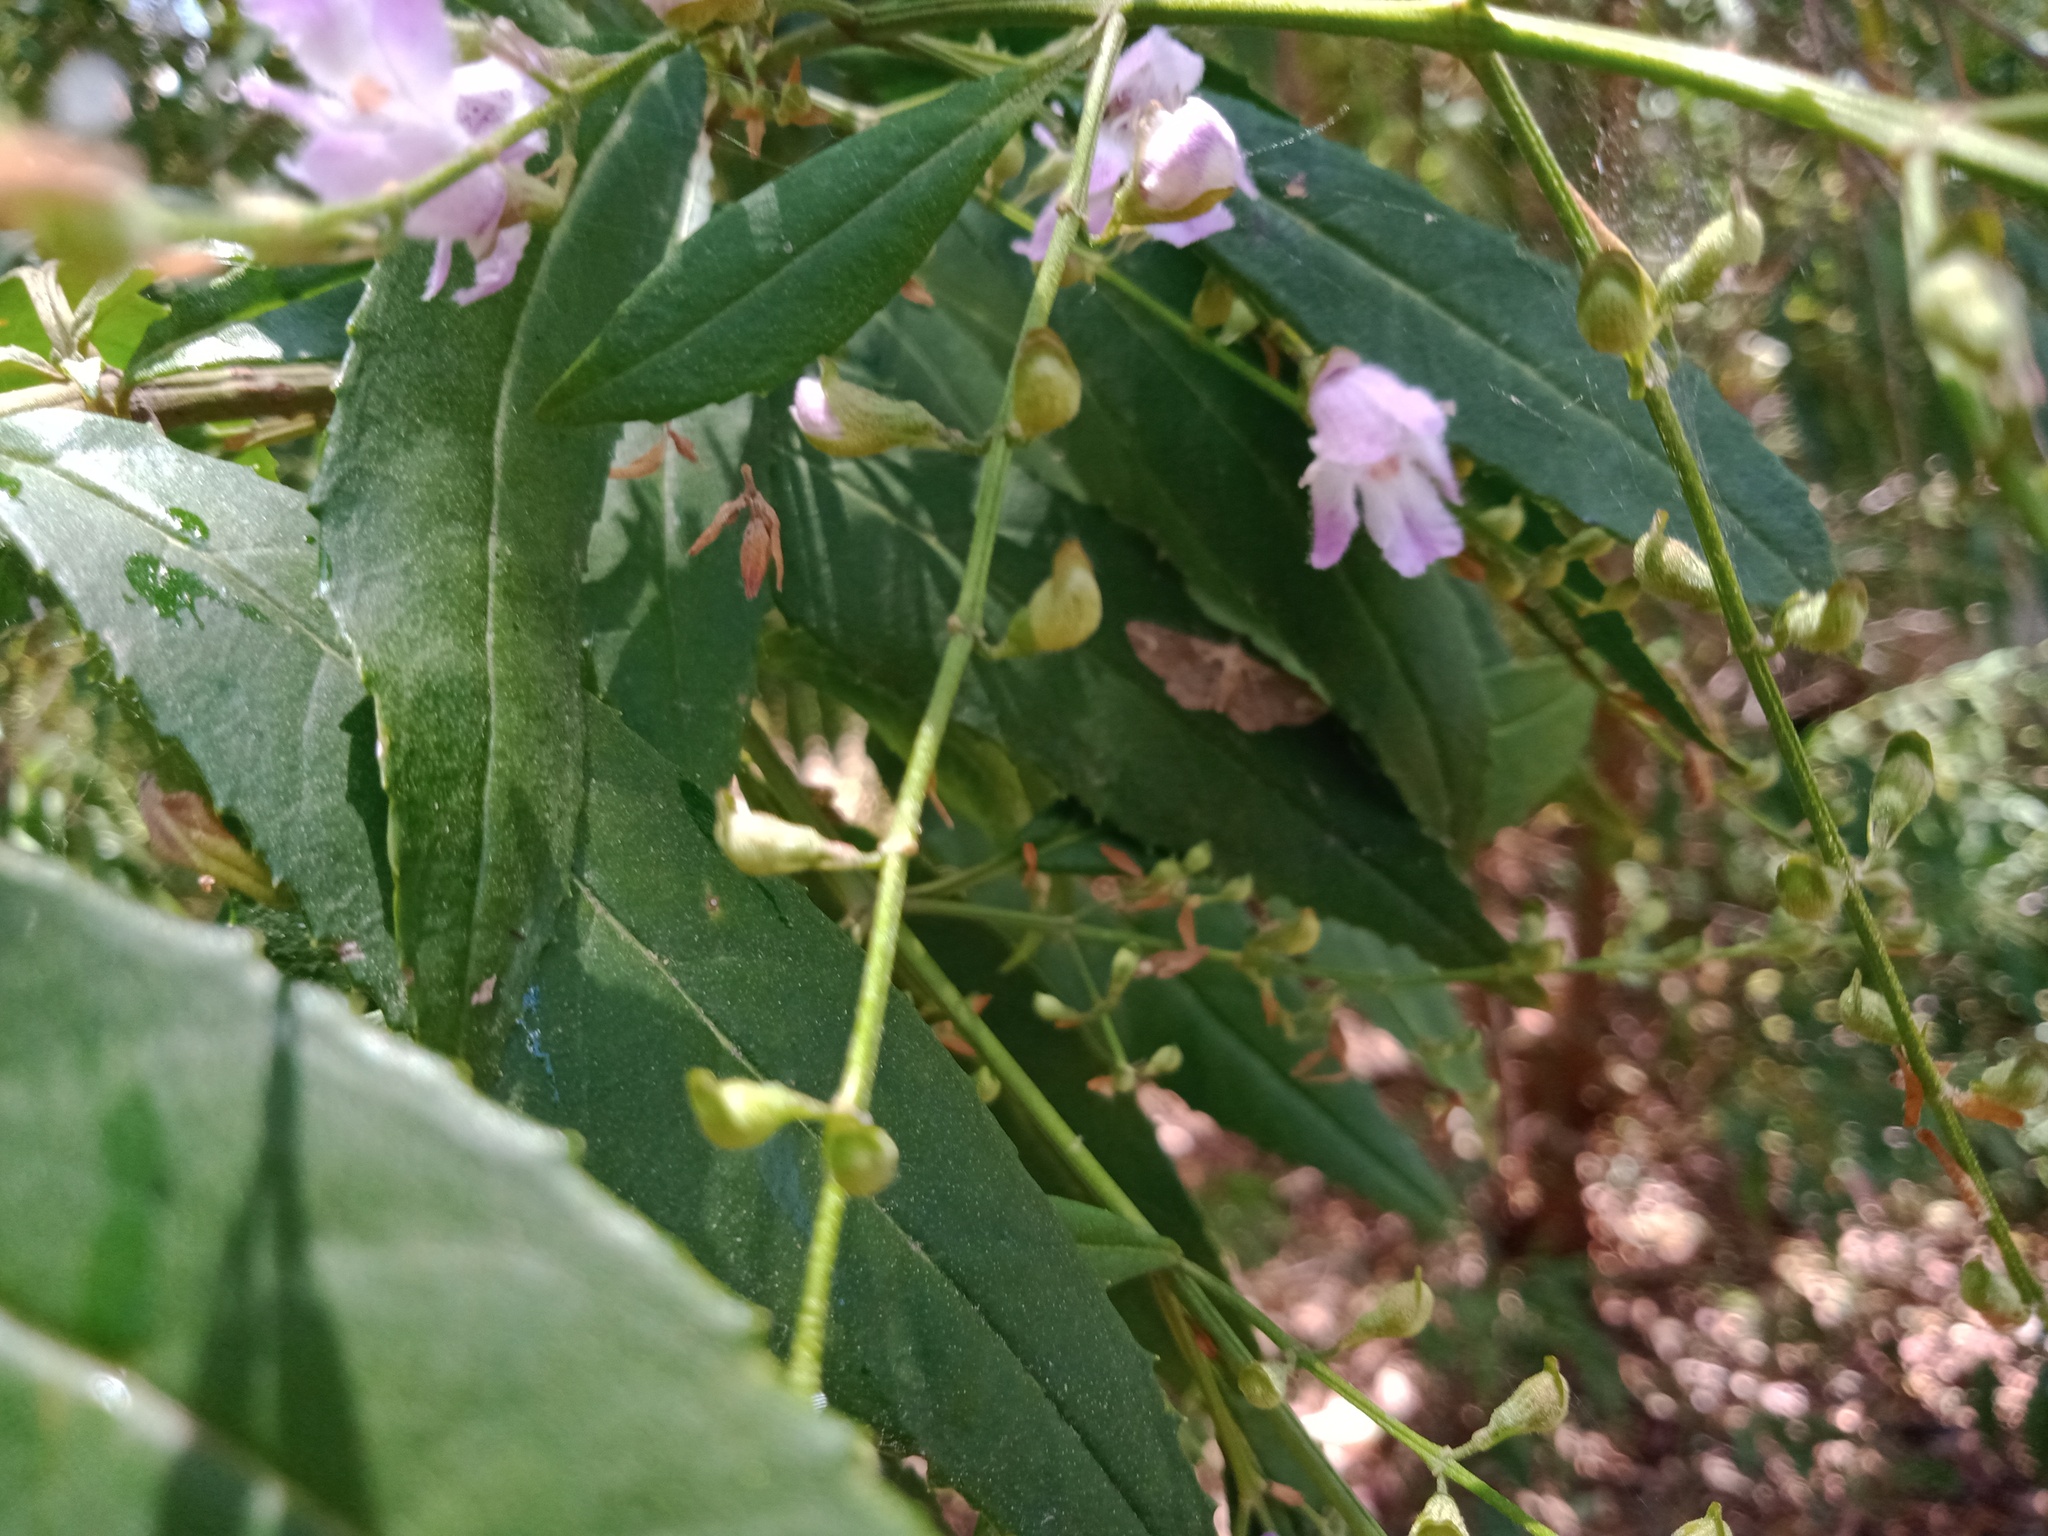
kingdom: Animalia
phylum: Arthropoda
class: Insecta
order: Lepidoptera
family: Geometridae
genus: Pasiphilodes
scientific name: Pasiphilodes testulata
